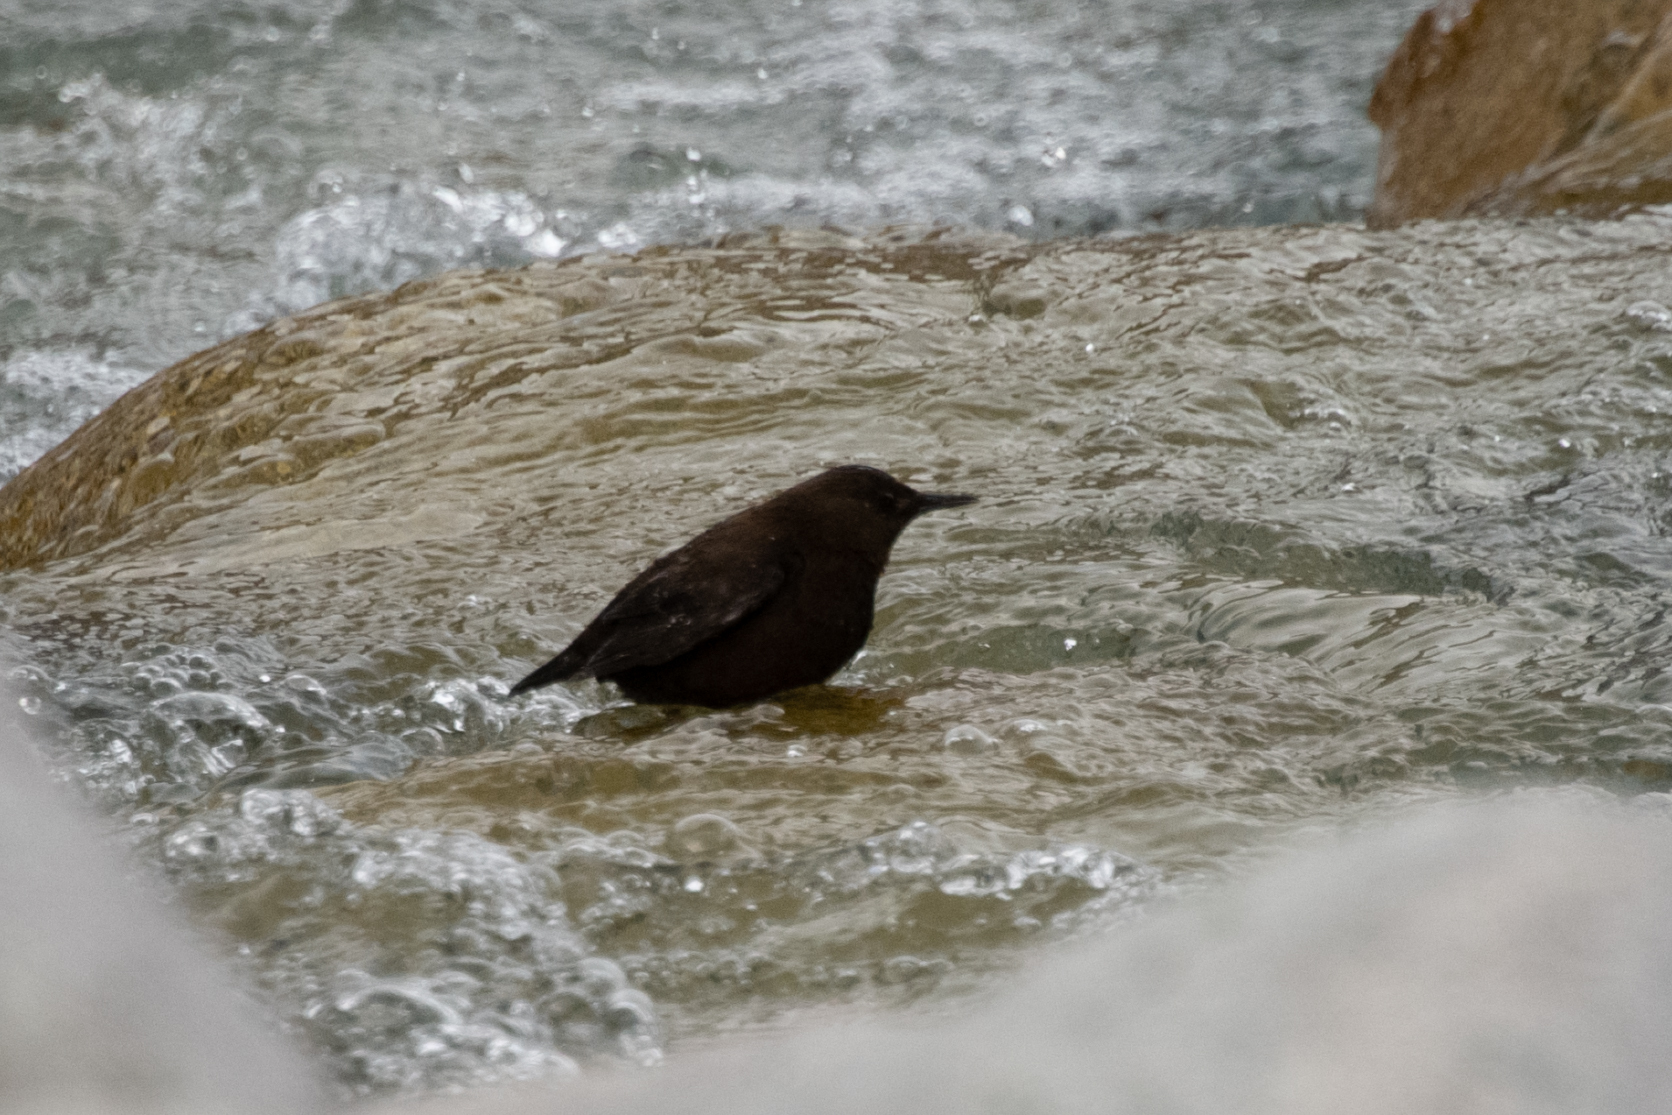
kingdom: Animalia
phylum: Chordata
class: Aves
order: Passeriformes
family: Cinclidae
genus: Cinclus
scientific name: Cinclus pallasii
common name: Brown dipper
